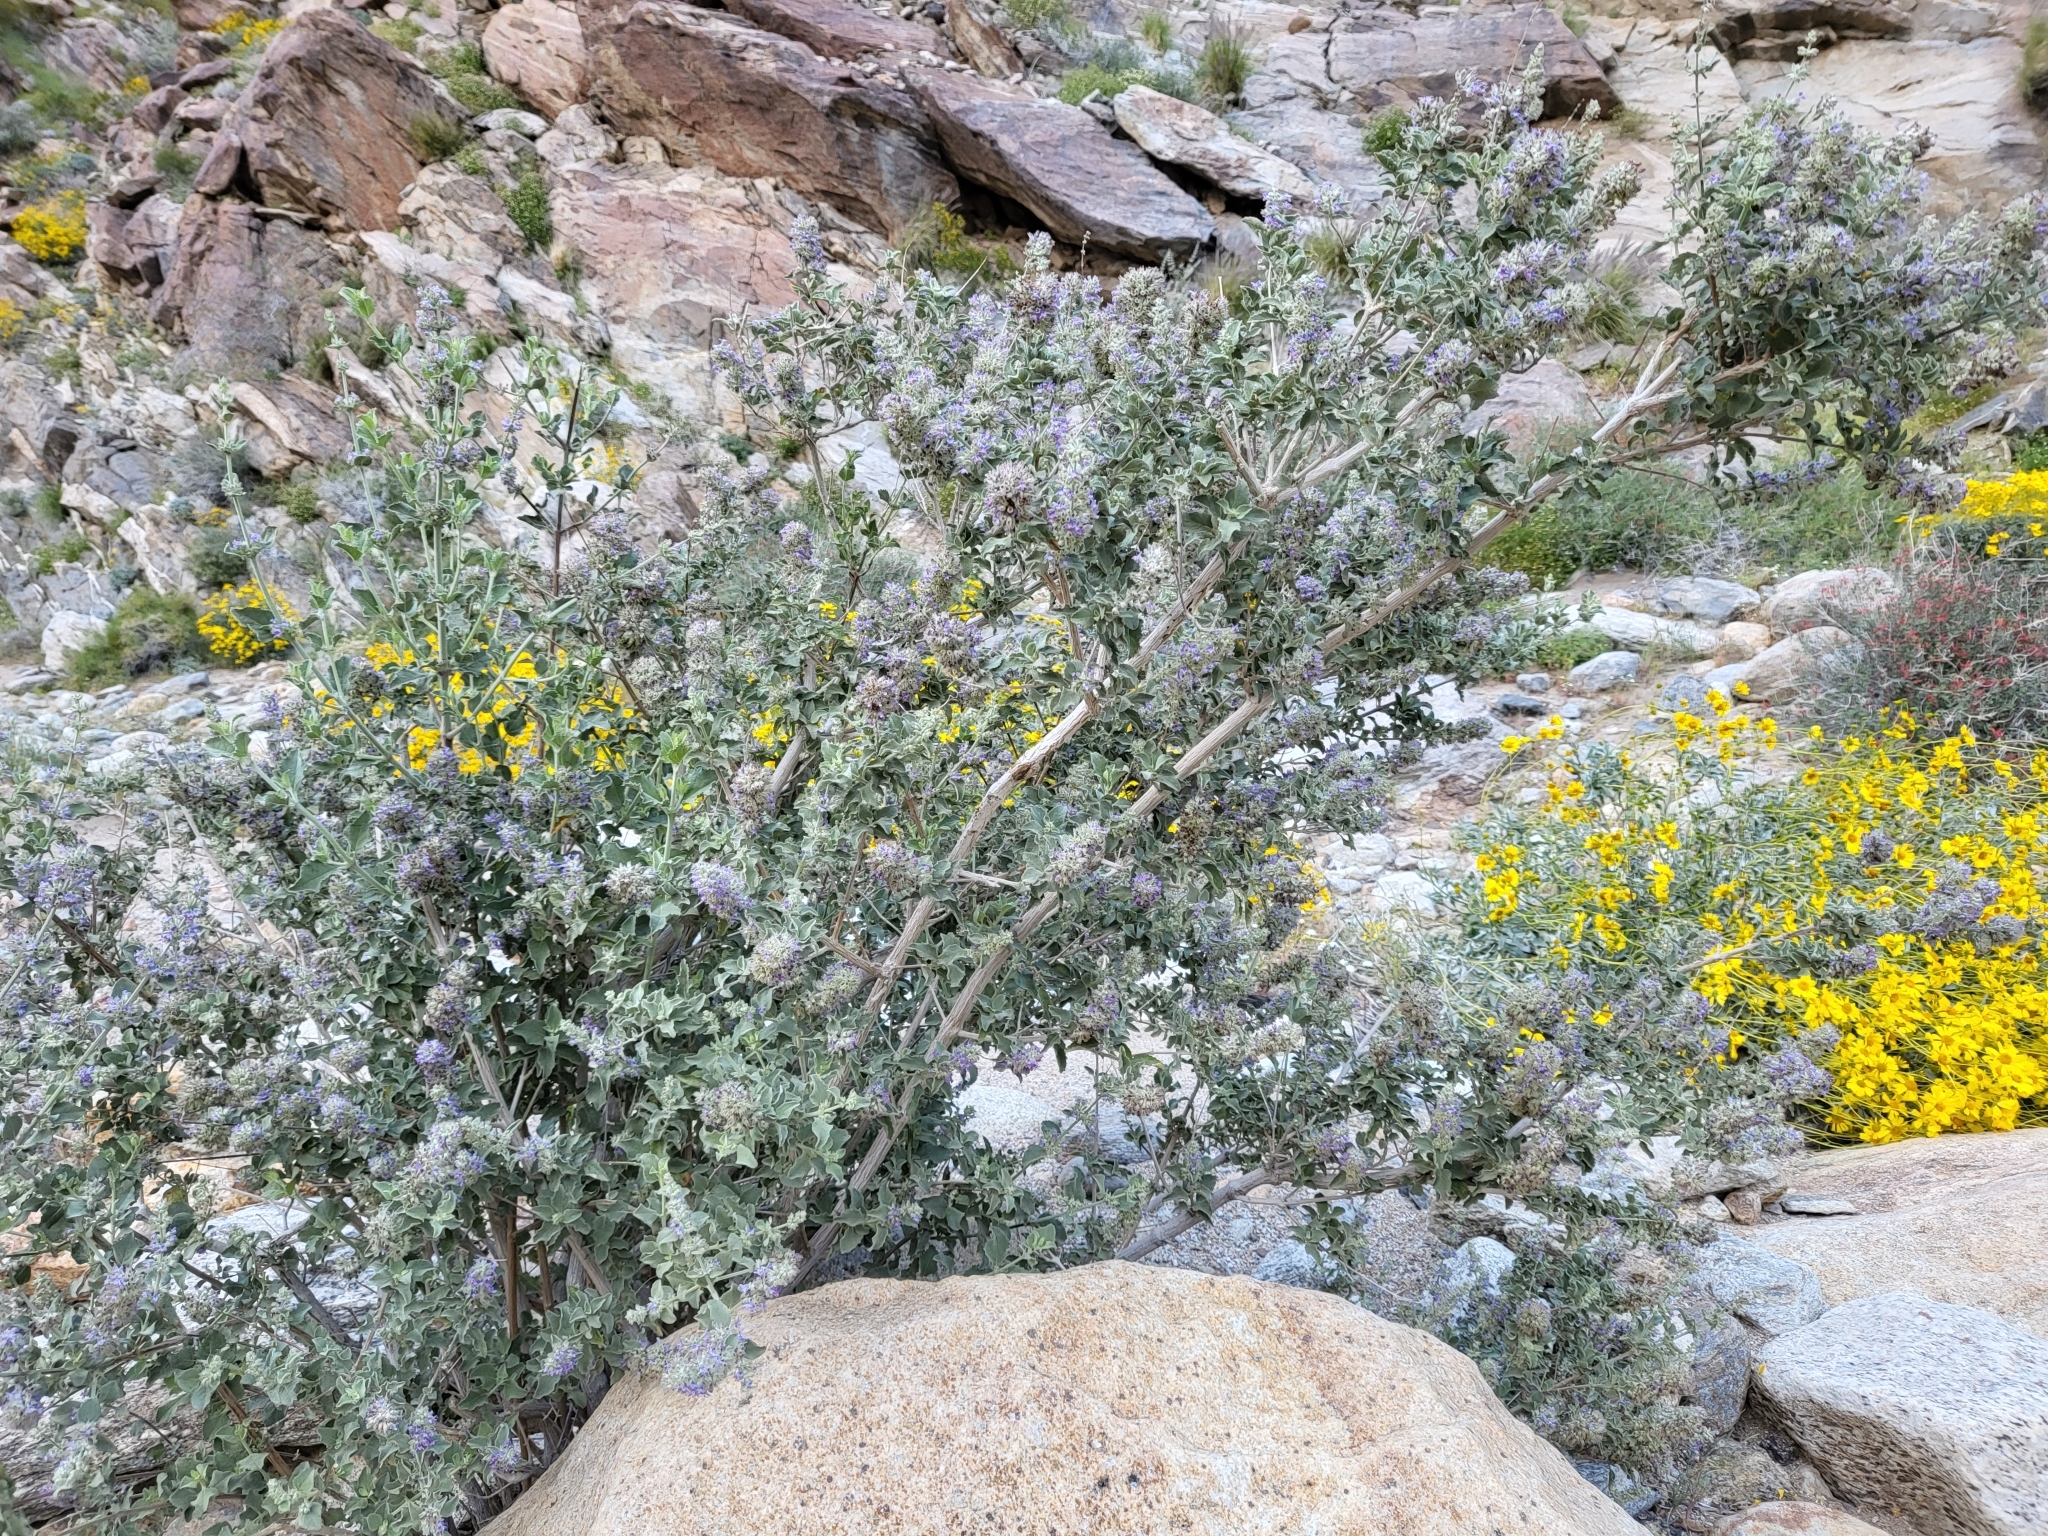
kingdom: Plantae
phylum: Tracheophyta
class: Magnoliopsida
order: Lamiales
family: Lamiaceae
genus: Condea
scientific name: Condea emoryi
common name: Chia
